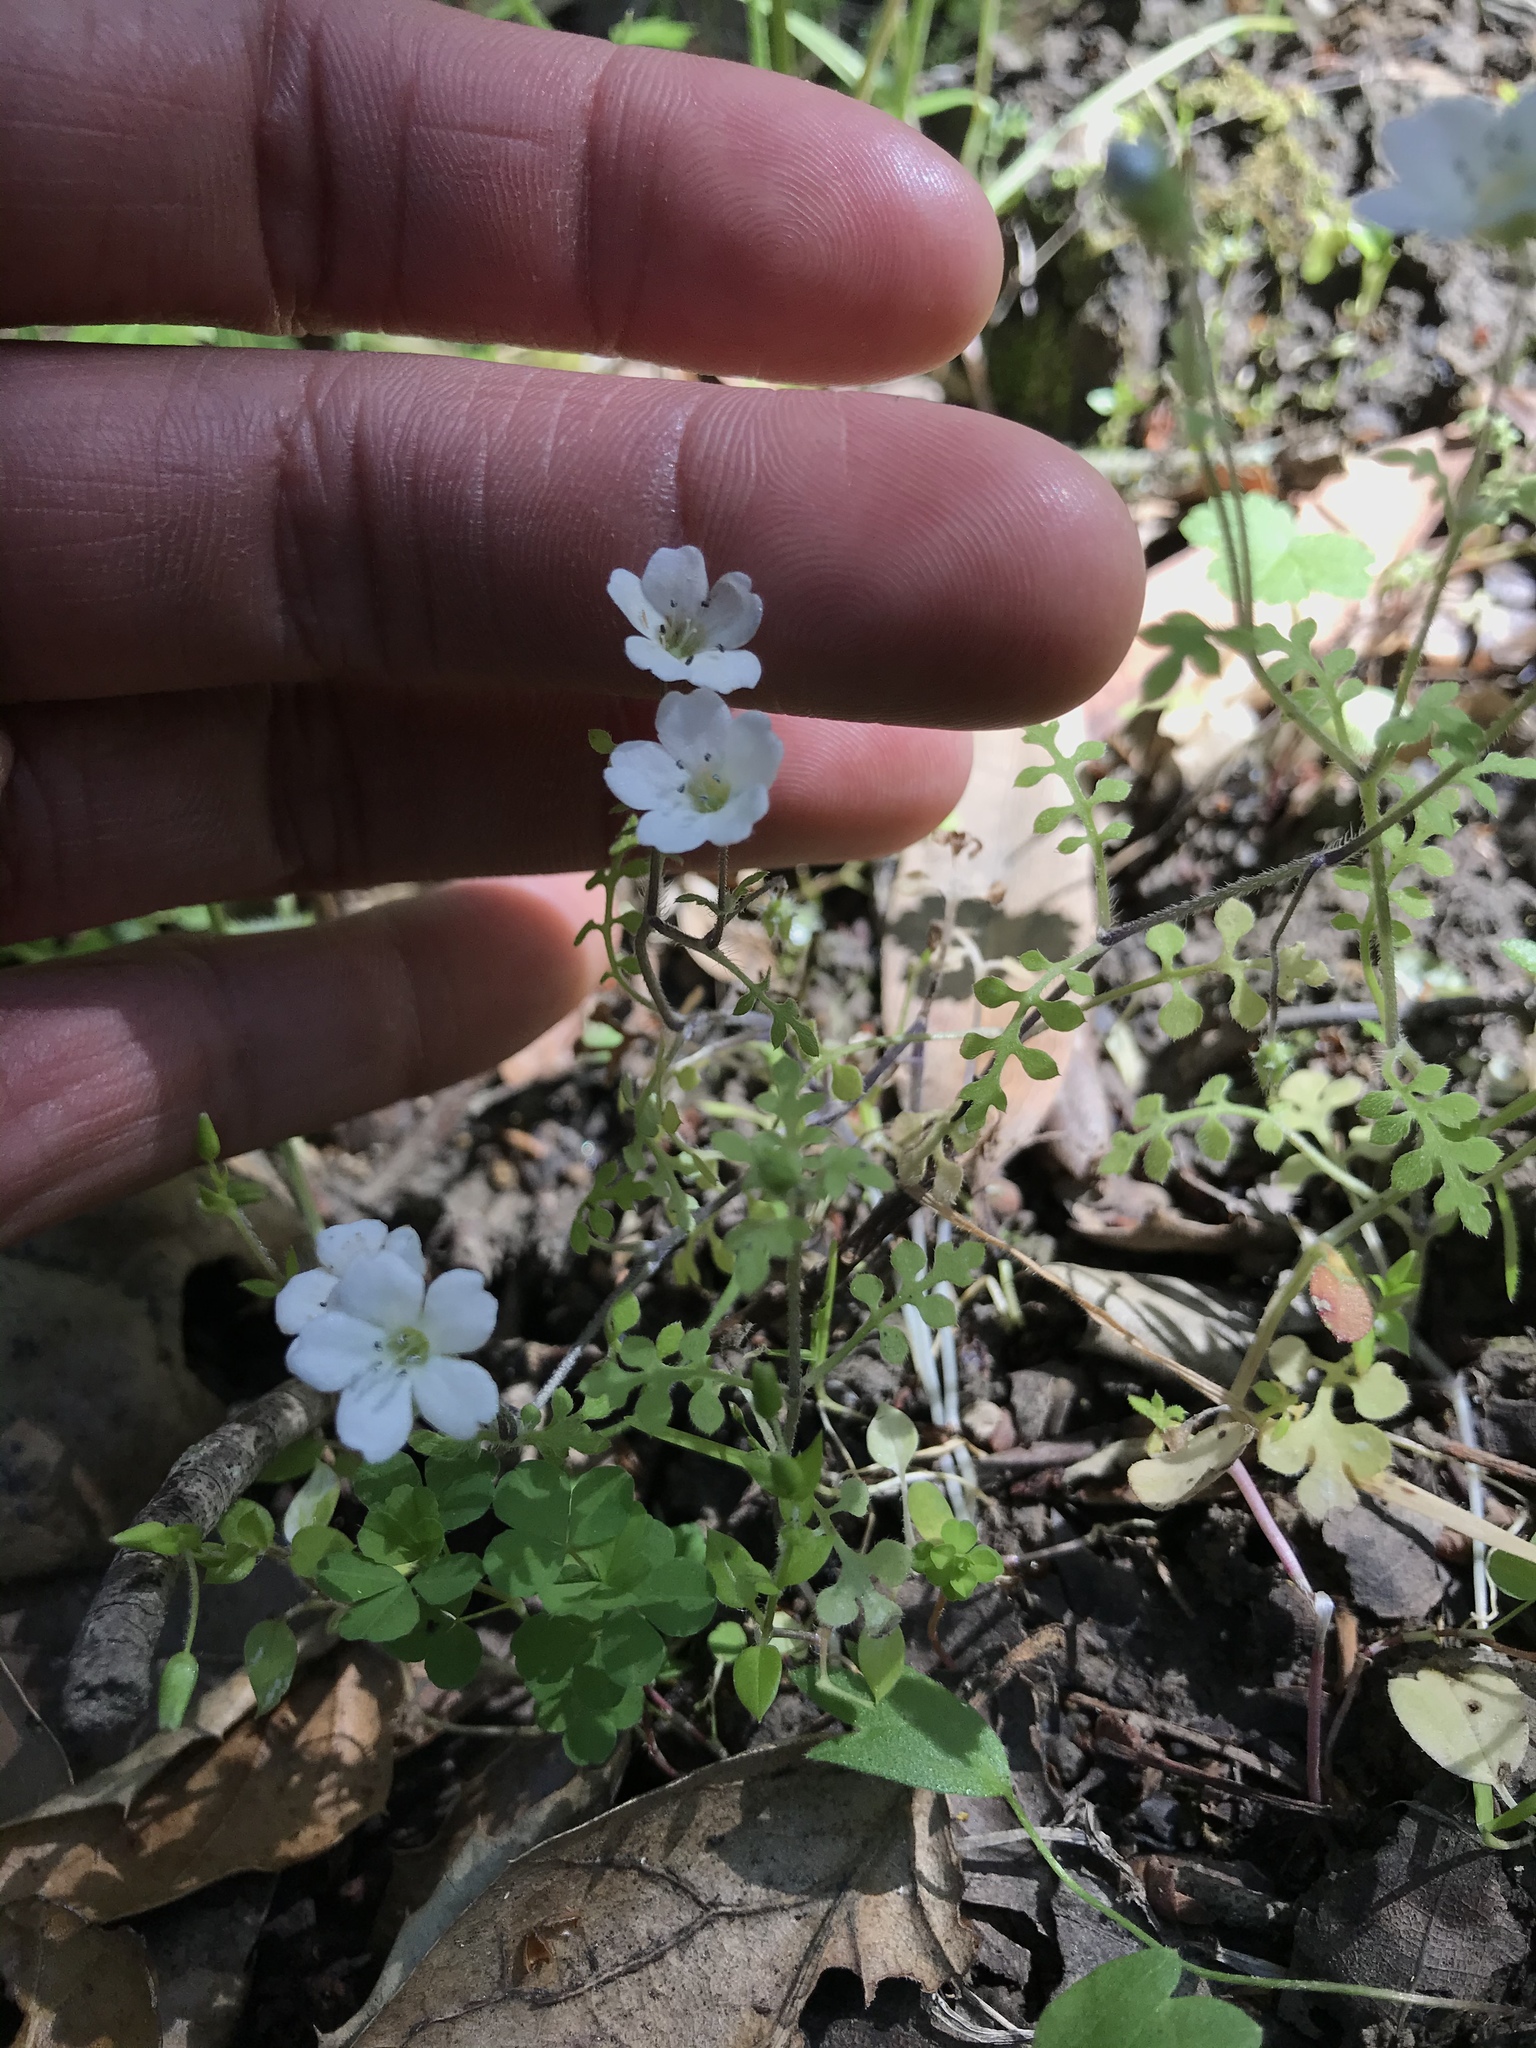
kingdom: Plantae
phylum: Tracheophyta
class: Magnoliopsida
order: Boraginales
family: Hydrophyllaceae
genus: Nemophila
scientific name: Nemophila heterophylla
